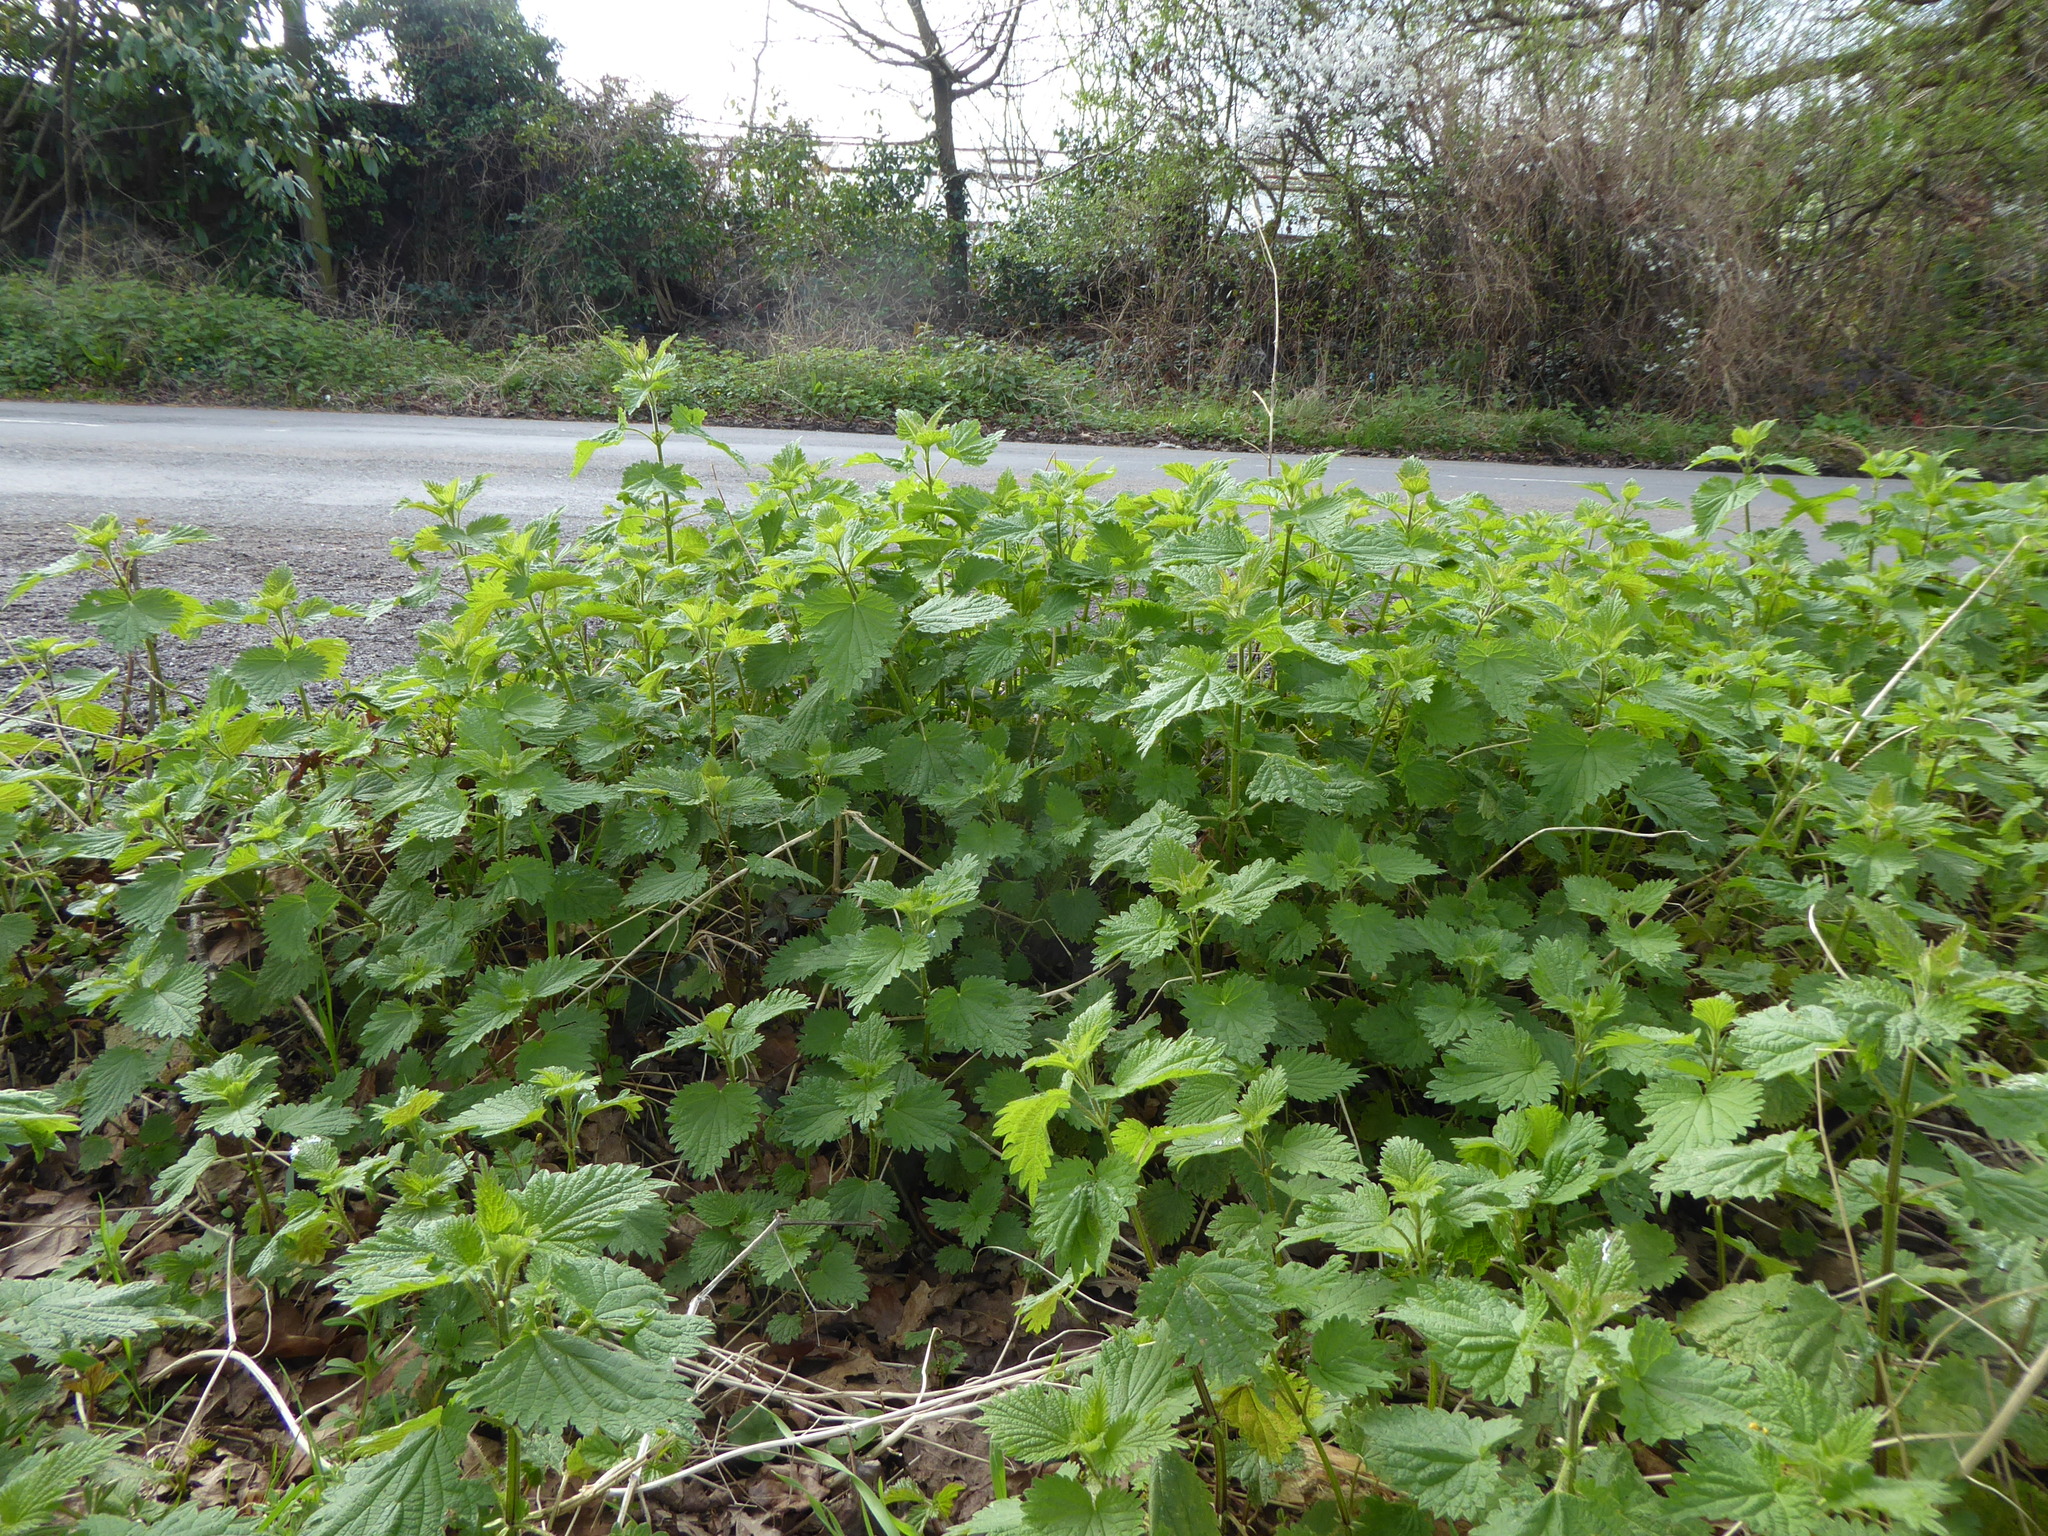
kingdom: Plantae
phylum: Tracheophyta
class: Magnoliopsida
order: Rosales
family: Urticaceae
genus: Urtica
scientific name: Urtica dioica
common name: Common nettle
